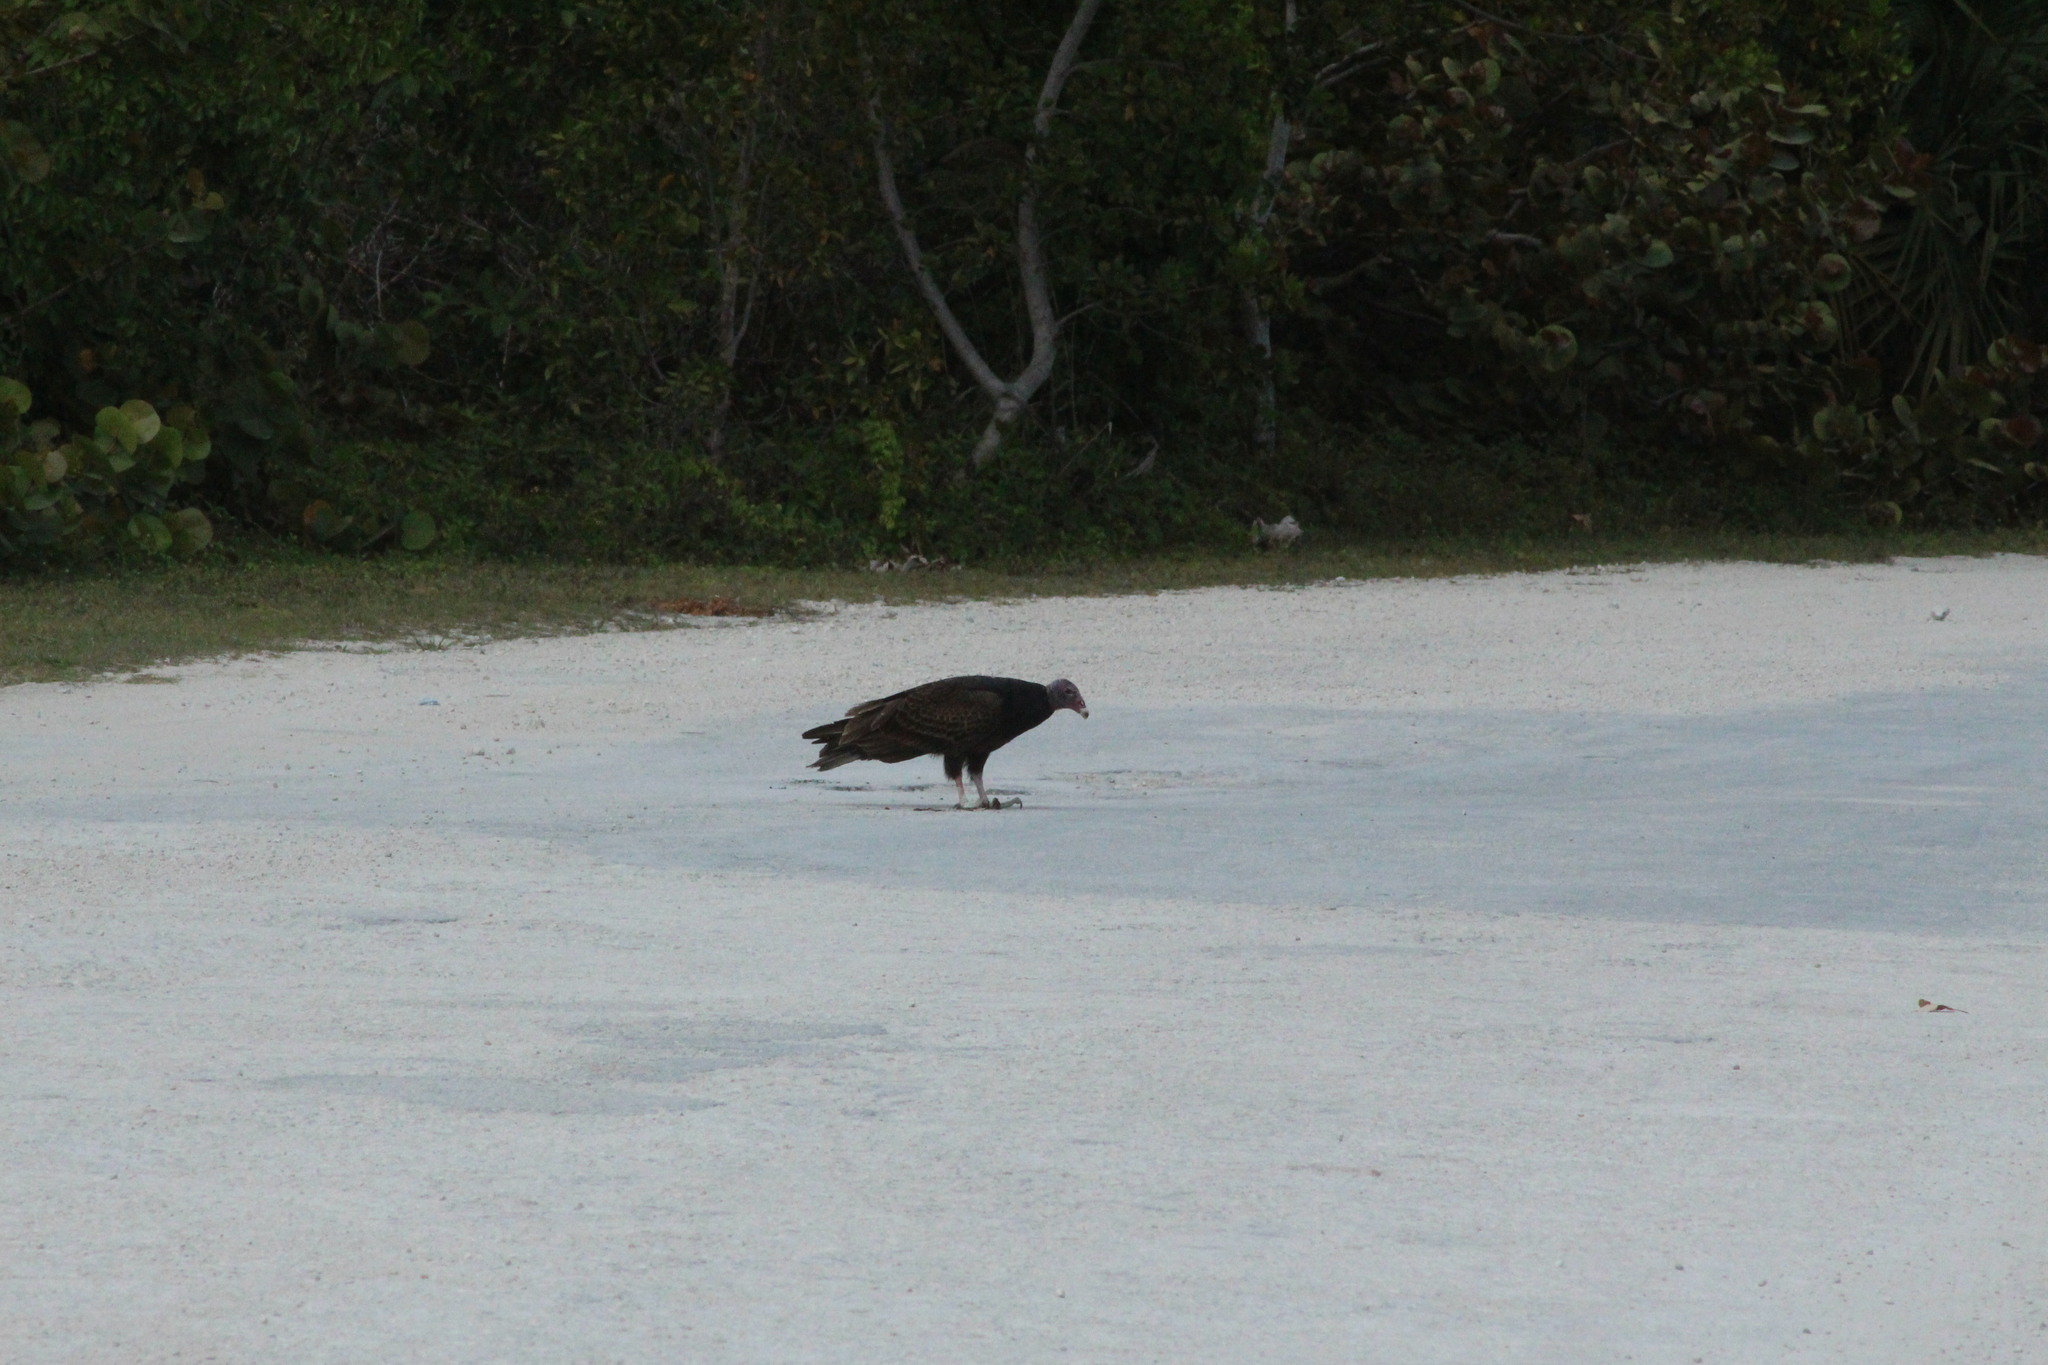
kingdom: Animalia
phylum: Chordata
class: Aves
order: Accipitriformes
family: Cathartidae
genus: Cathartes
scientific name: Cathartes aura
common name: Turkey vulture
